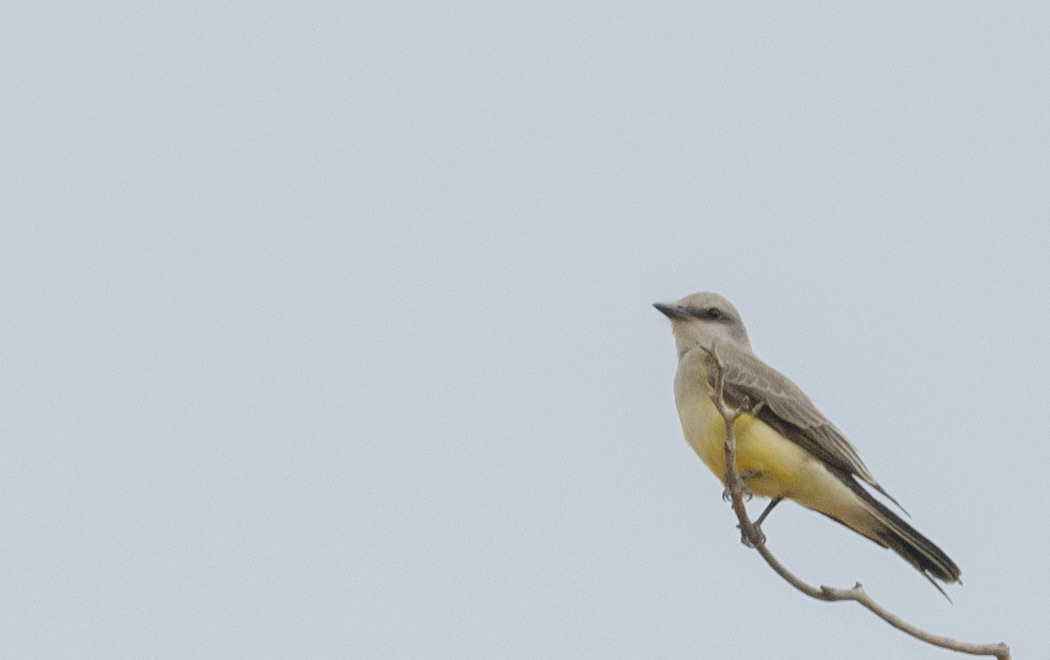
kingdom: Animalia
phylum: Chordata
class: Aves
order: Passeriformes
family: Tyrannidae
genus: Tyrannus
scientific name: Tyrannus verticalis
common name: Western kingbird
